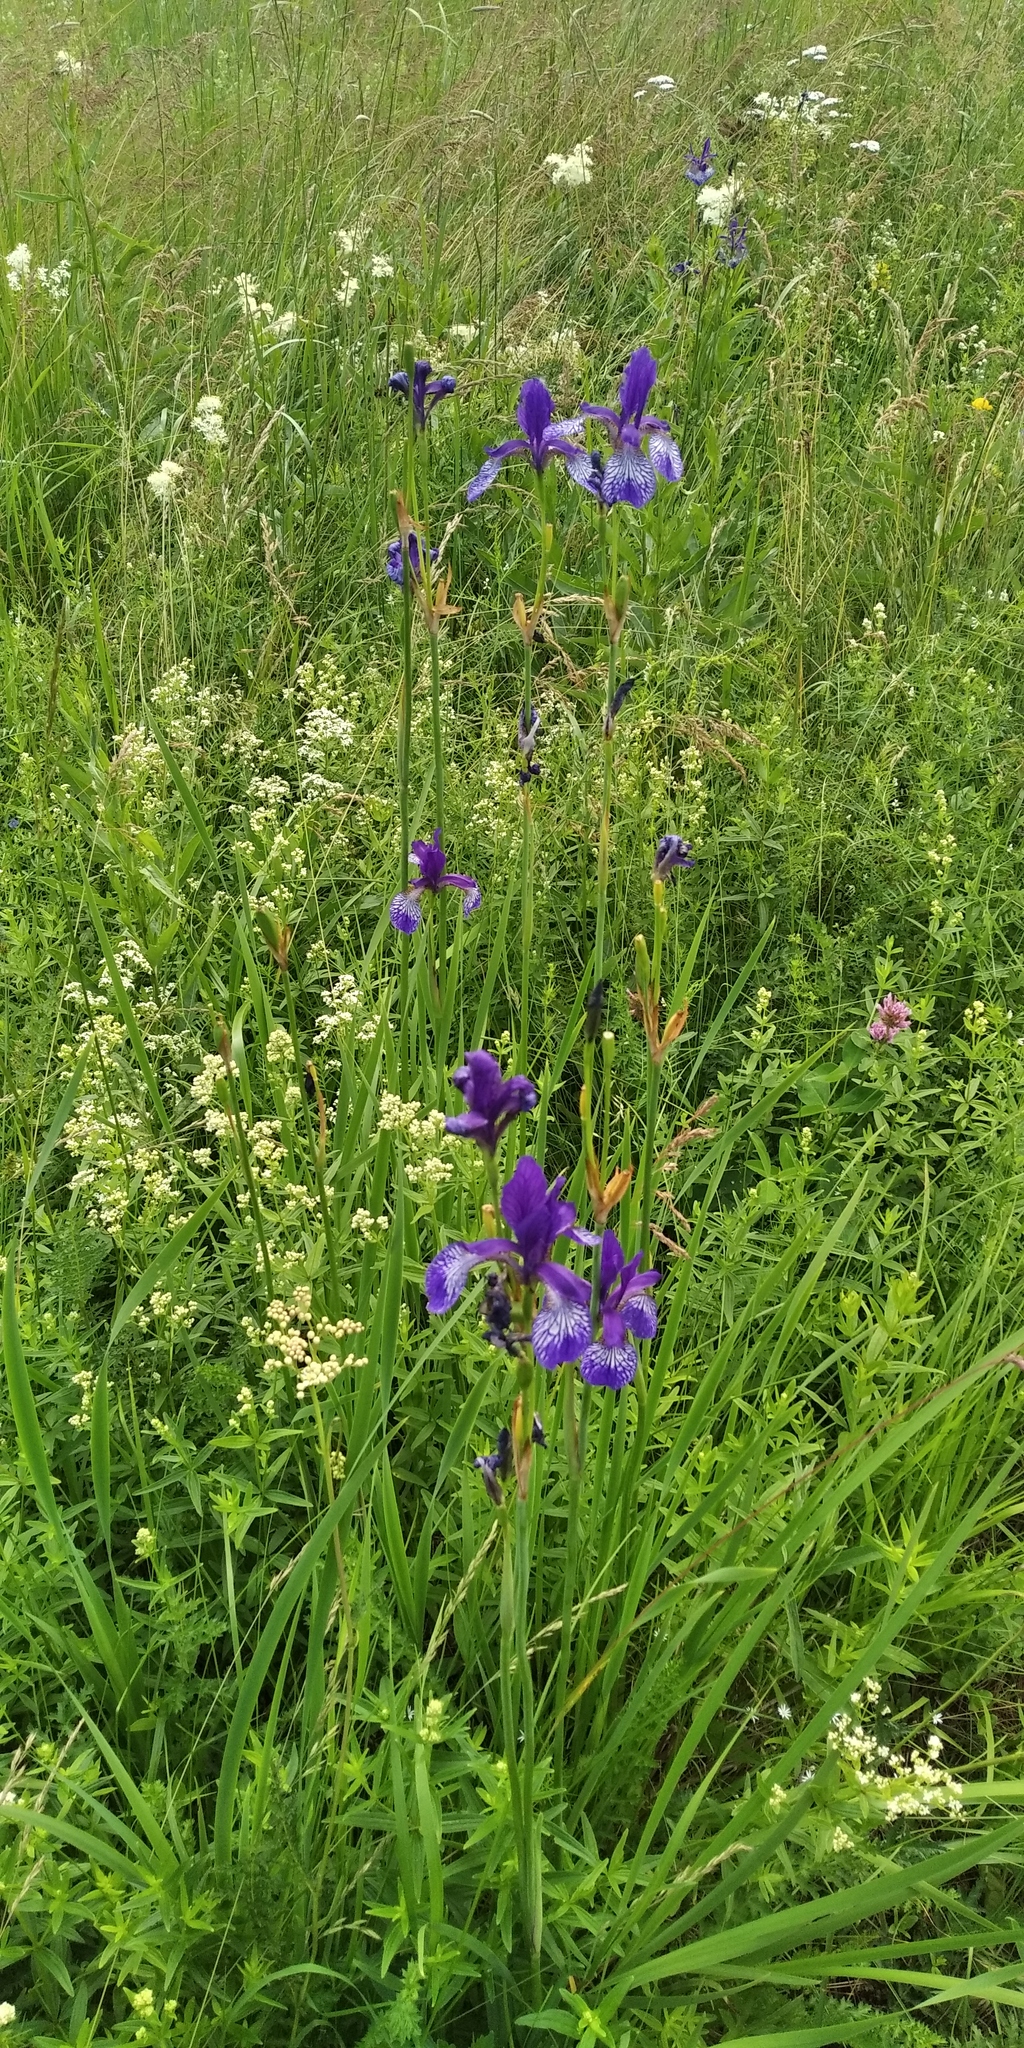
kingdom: Plantae
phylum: Tracheophyta
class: Liliopsida
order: Asparagales
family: Iridaceae
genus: Iris
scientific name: Iris sibirica
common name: Siberian iris
